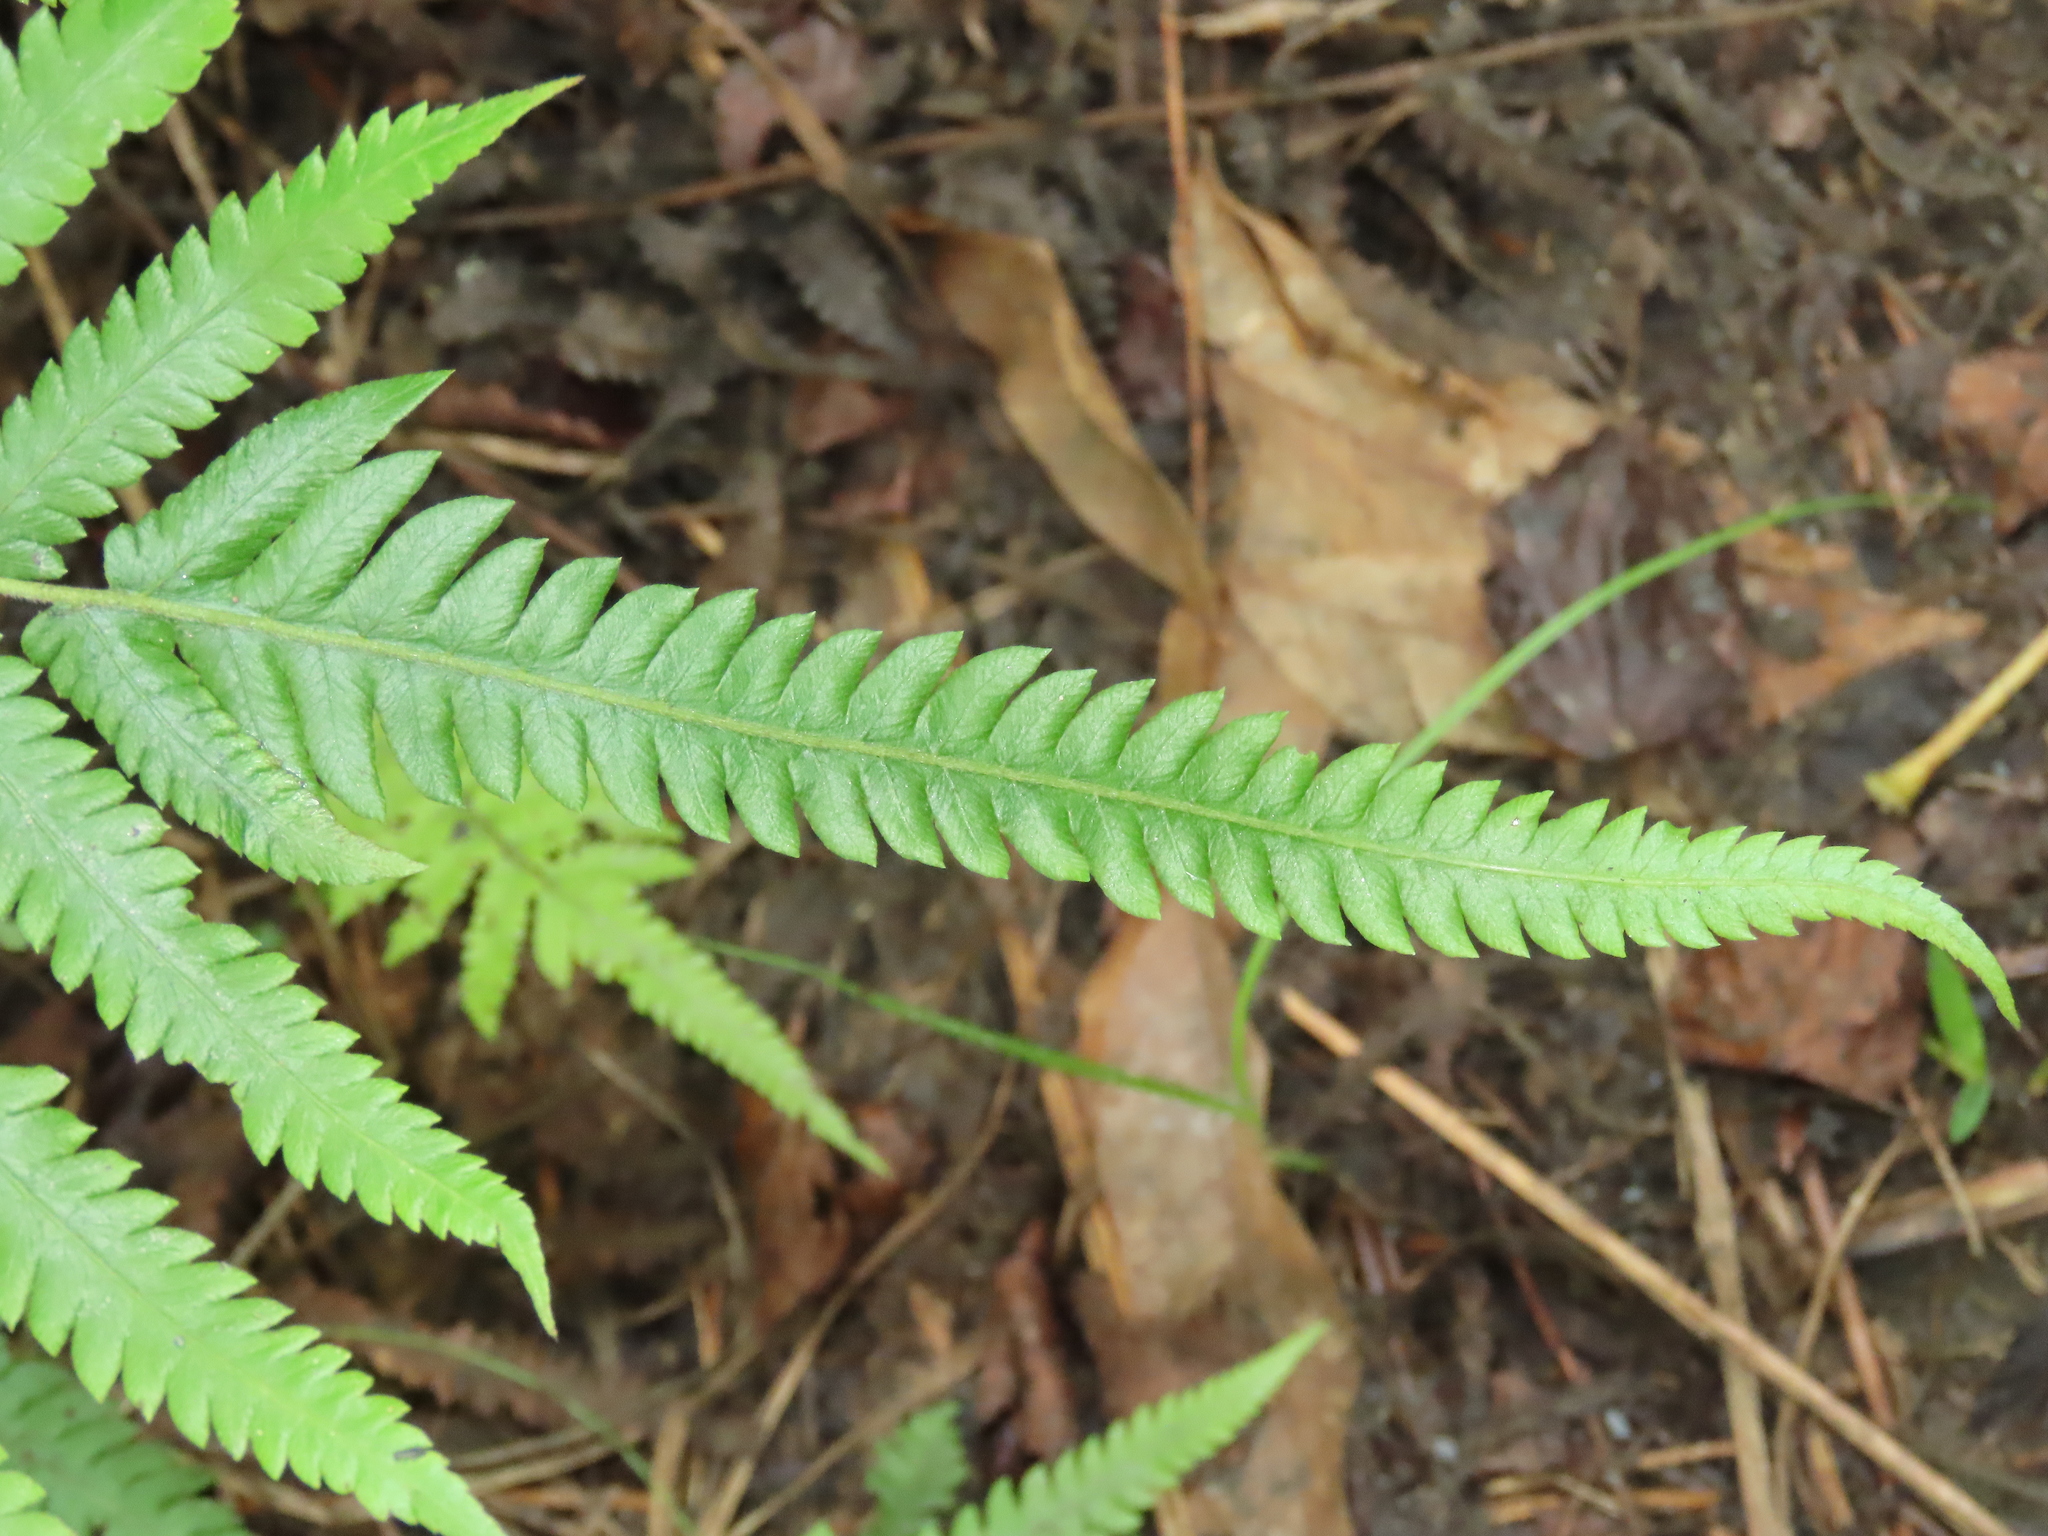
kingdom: Plantae
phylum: Tracheophyta
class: Polypodiopsida
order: Polypodiales
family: Thelypteridaceae
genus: Christella
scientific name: Christella acuminata
